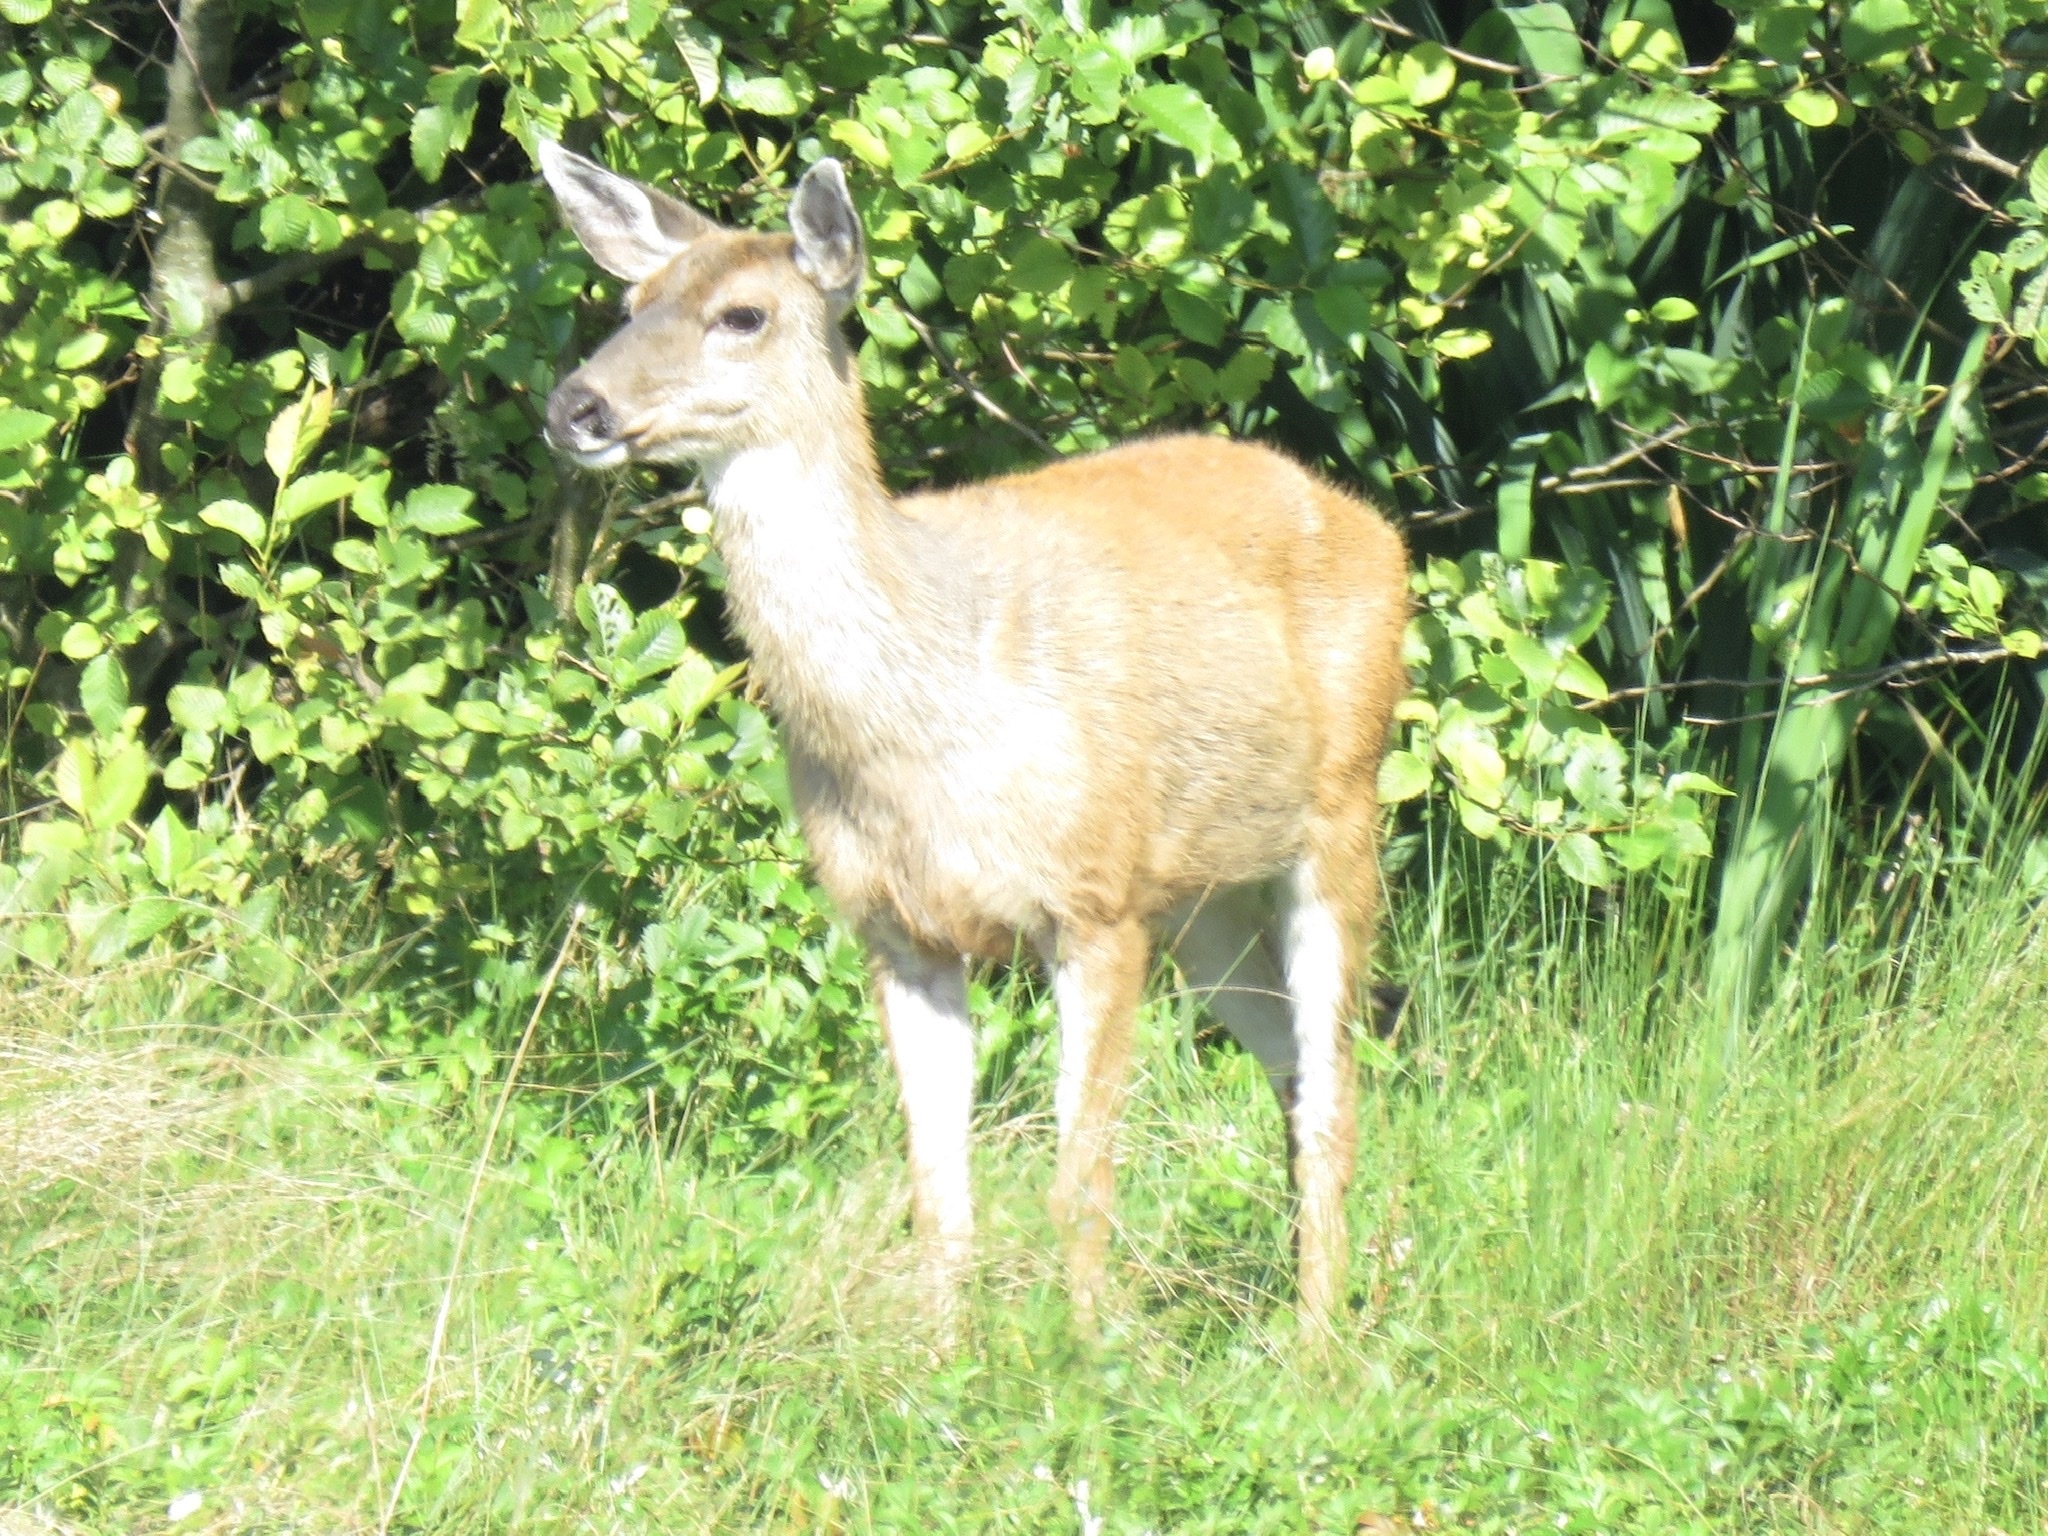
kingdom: Animalia
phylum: Chordata
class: Mammalia
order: Artiodactyla
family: Cervidae
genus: Odocoileus
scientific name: Odocoileus hemionus
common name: Mule deer
